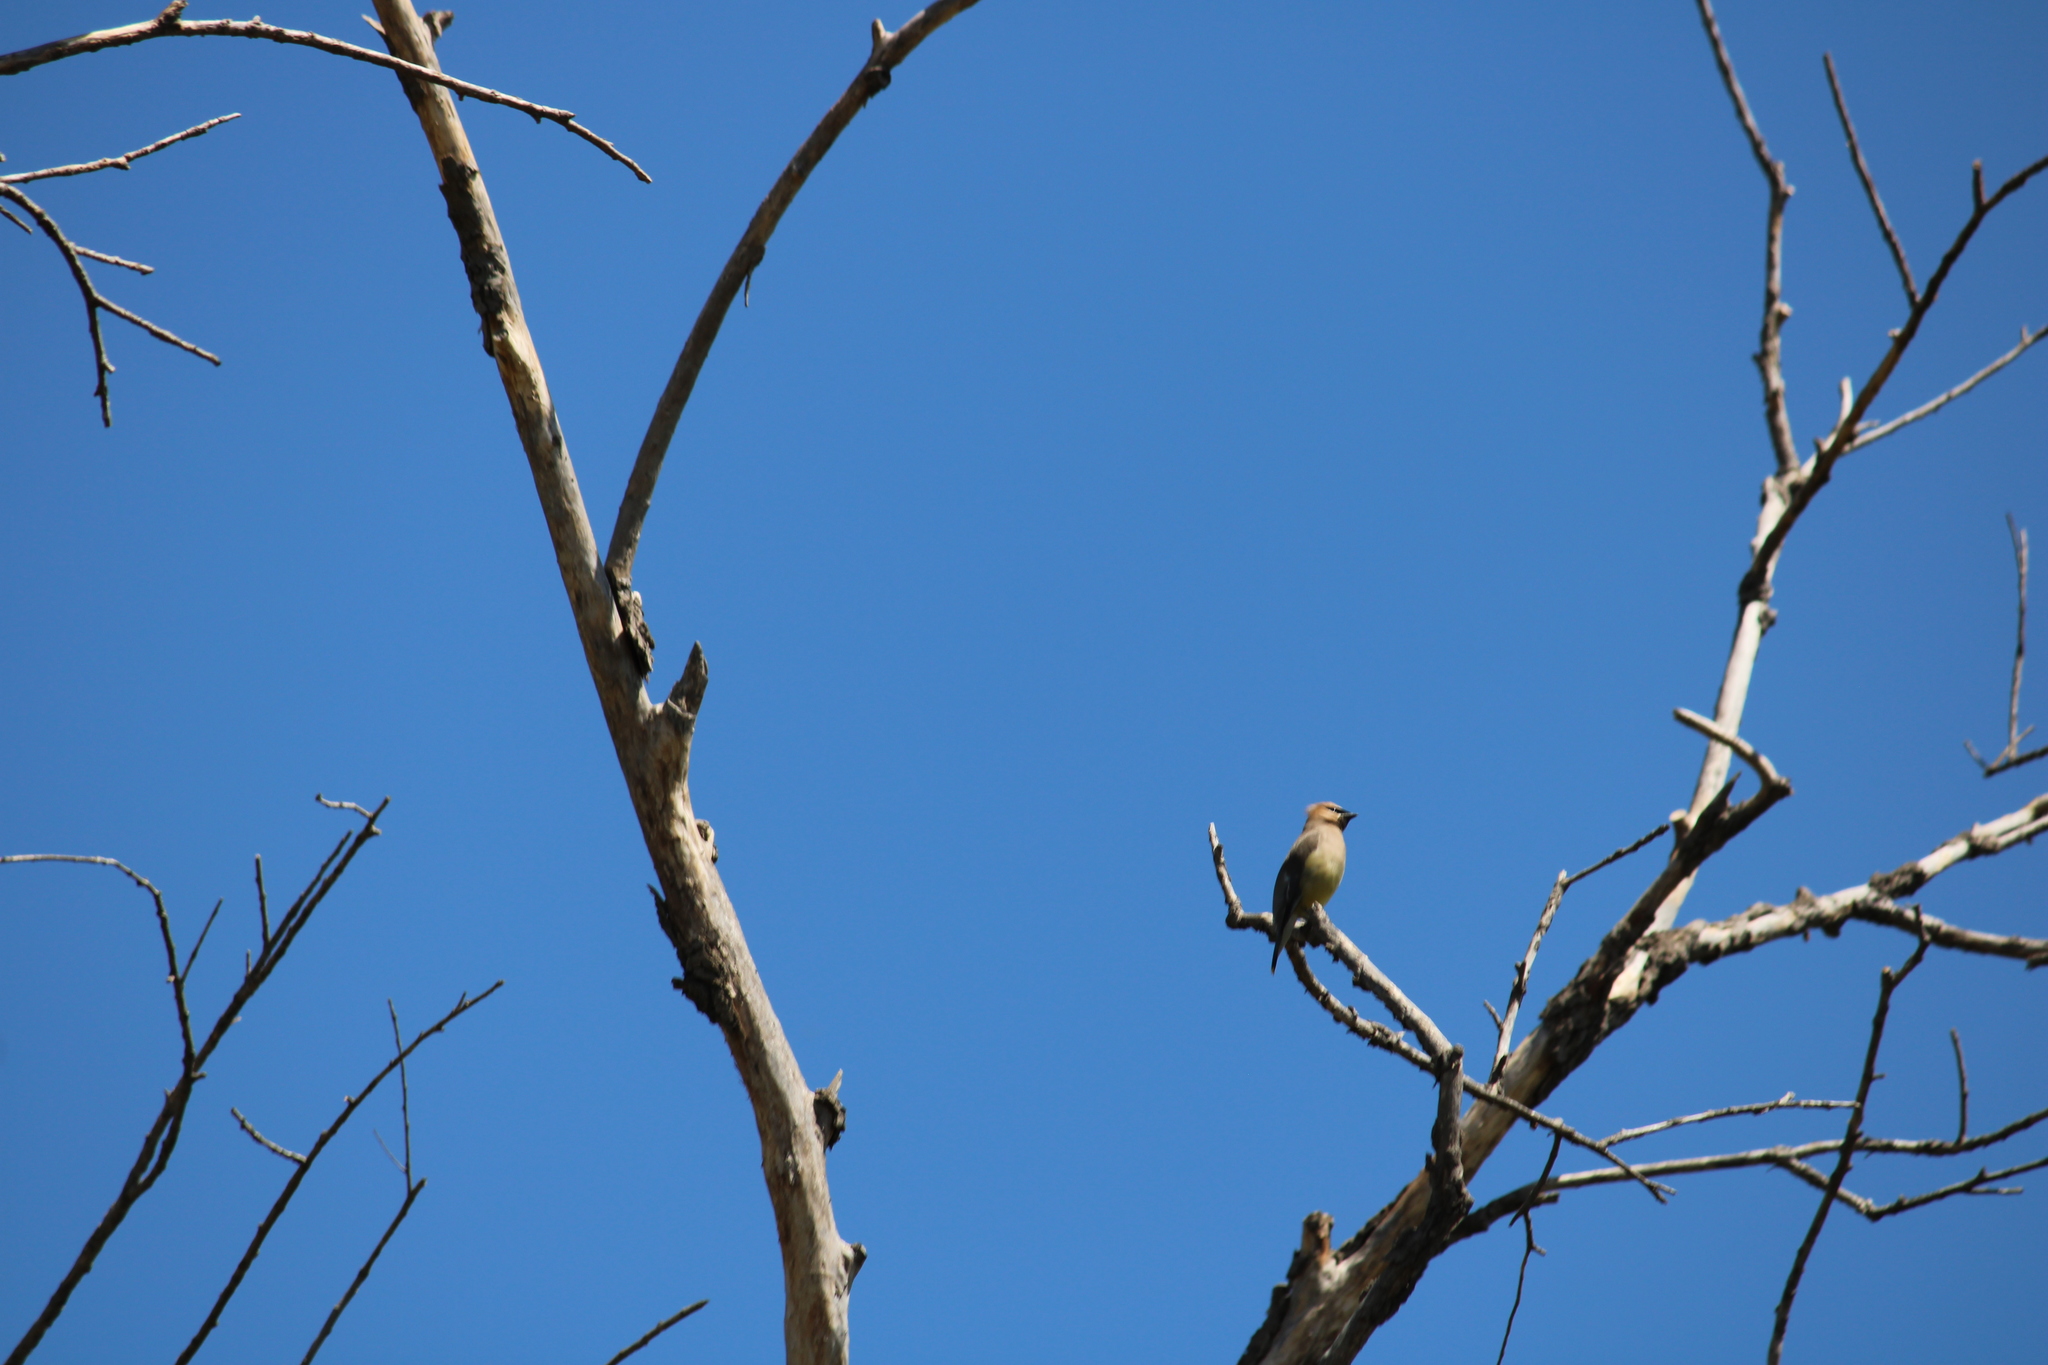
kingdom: Animalia
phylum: Chordata
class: Aves
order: Passeriformes
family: Bombycillidae
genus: Bombycilla
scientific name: Bombycilla cedrorum
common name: Cedar waxwing
